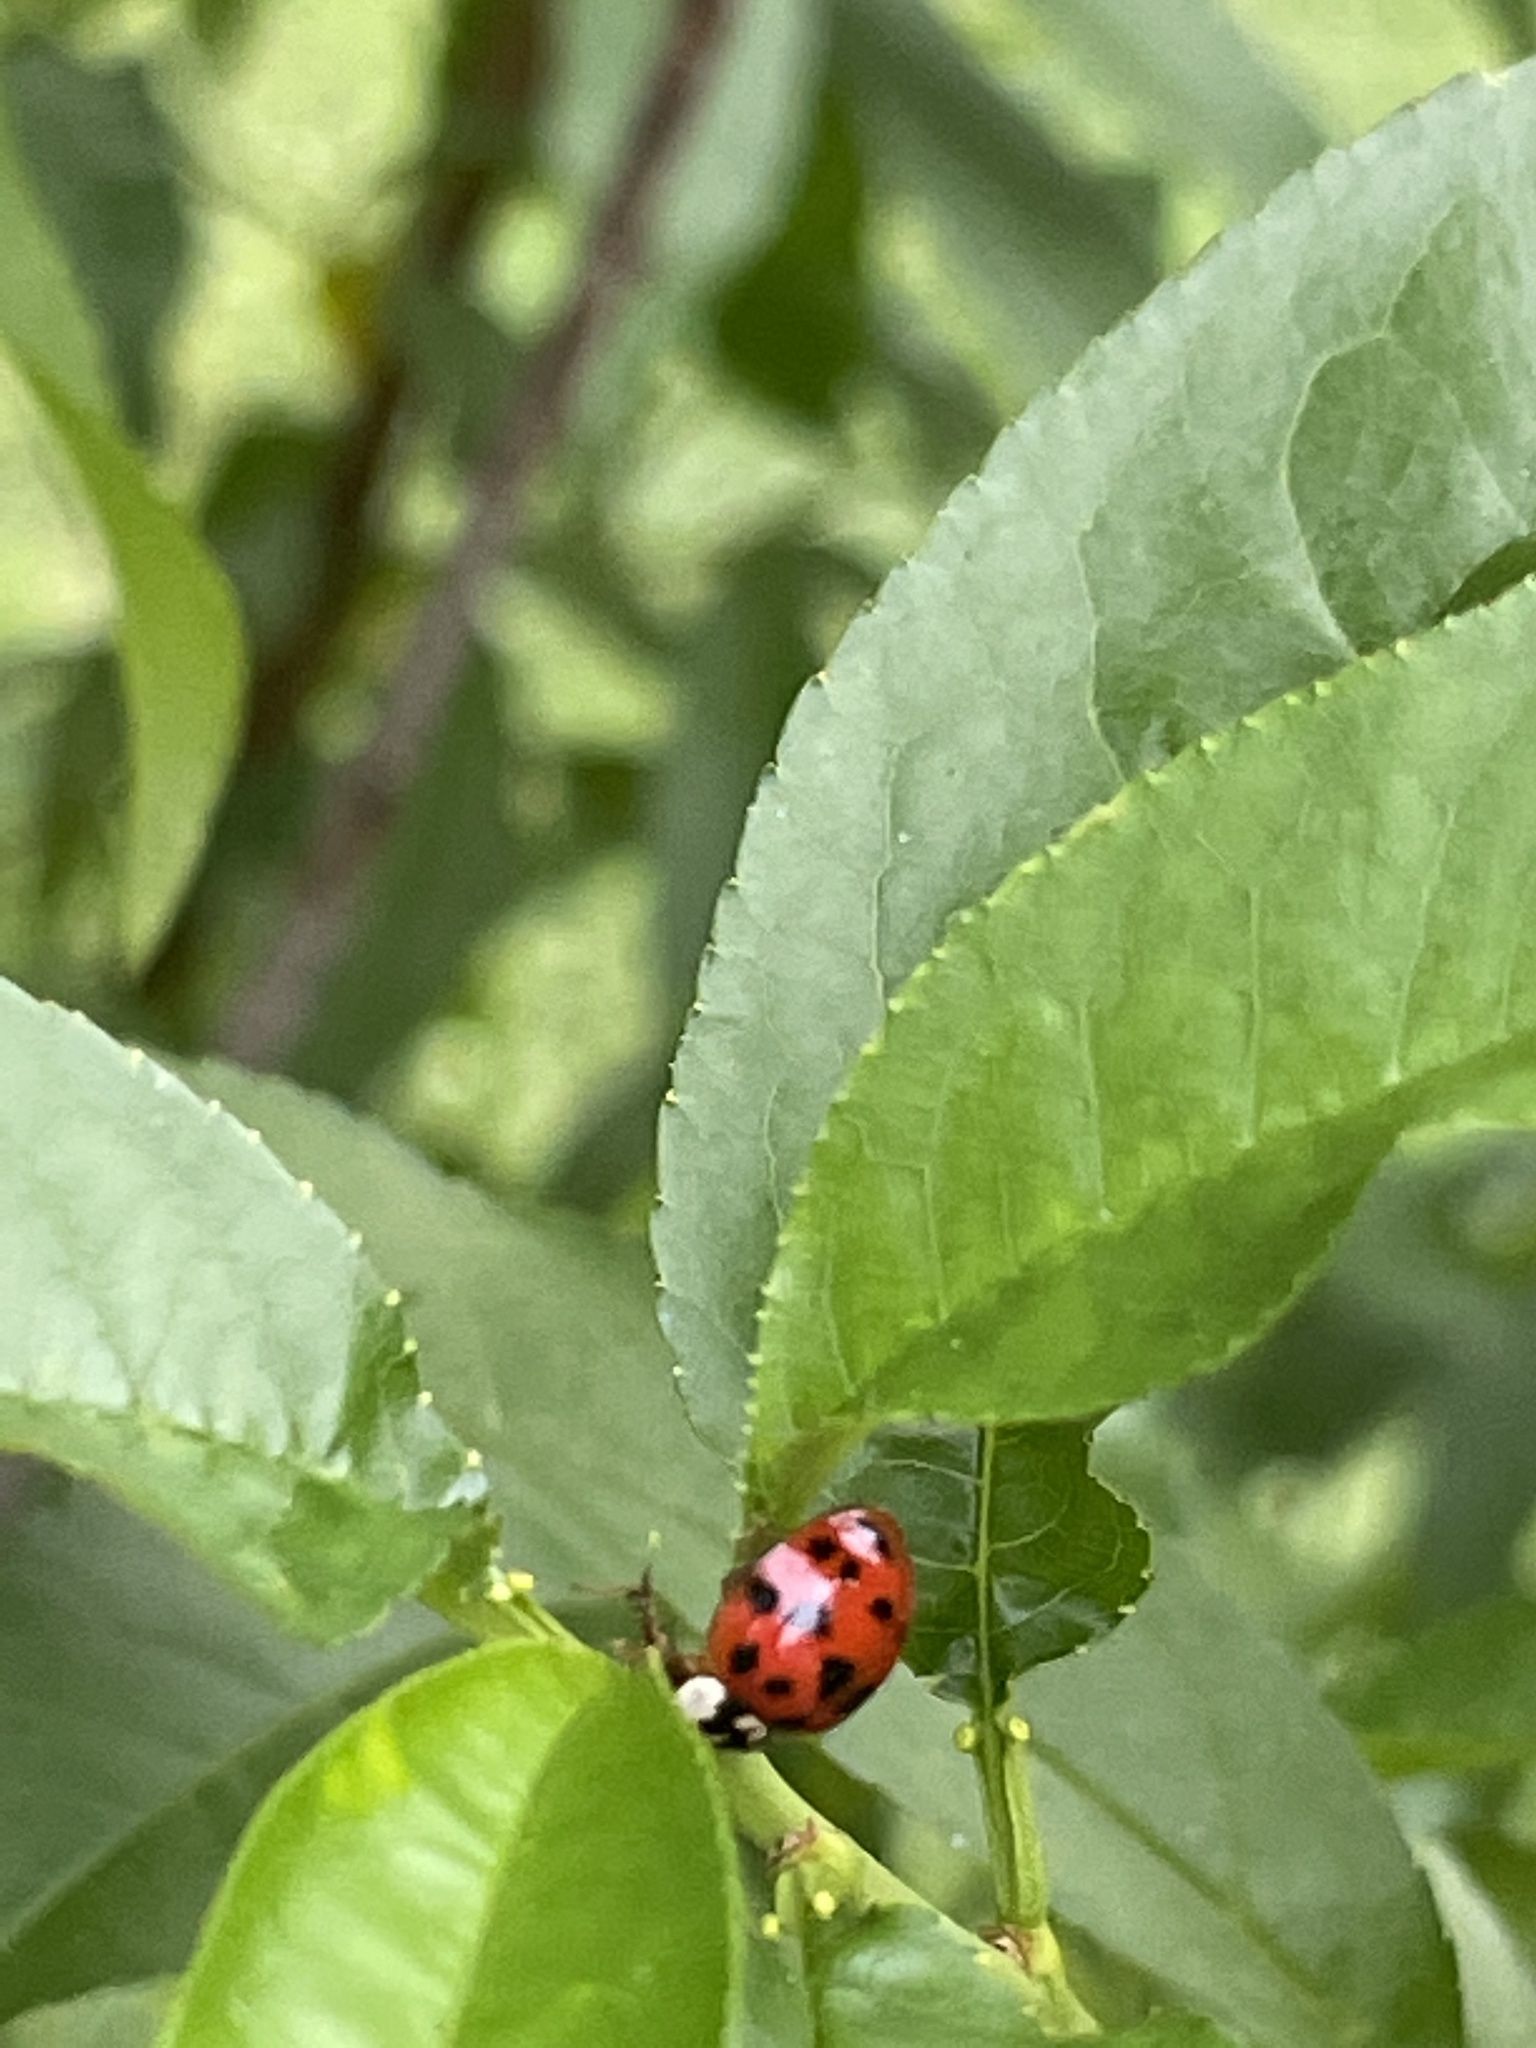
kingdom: Animalia
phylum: Arthropoda
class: Insecta
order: Coleoptera
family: Coccinellidae
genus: Harmonia
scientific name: Harmonia axyridis
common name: Harlequin ladybird
